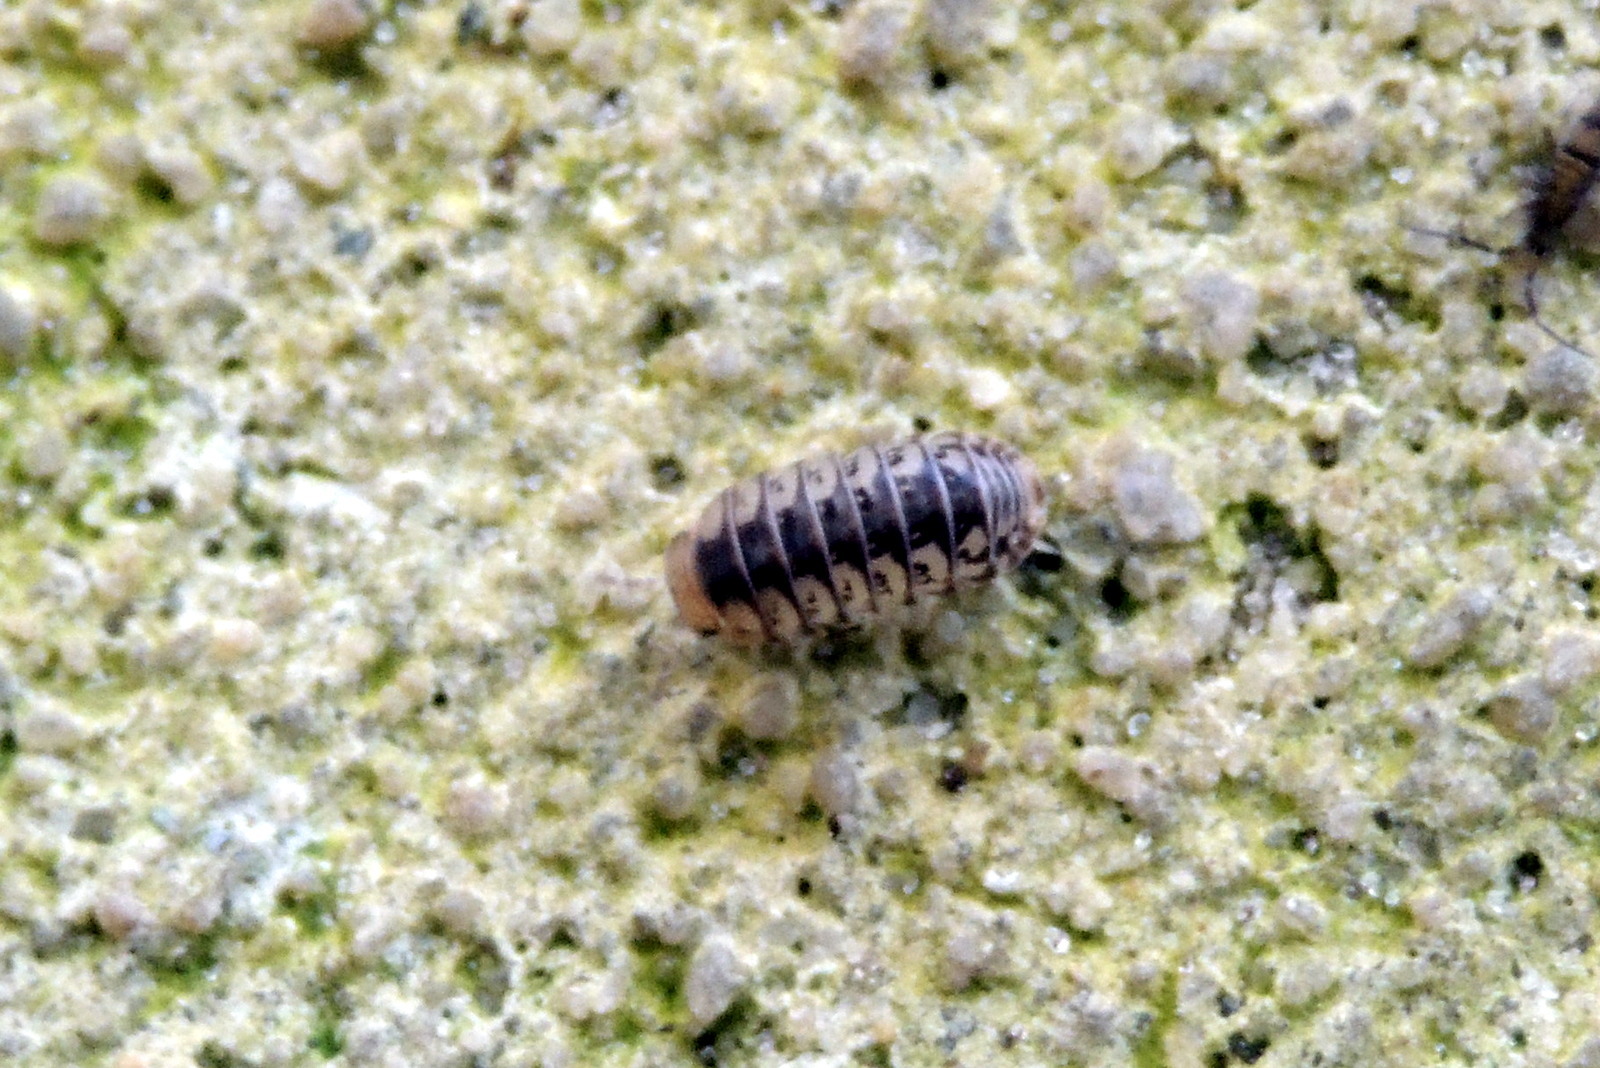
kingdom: Animalia
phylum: Arthropoda
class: Malacostraca
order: Isopoda
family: Armadillidae
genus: Venezillo
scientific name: Venezillo parvus
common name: Pillbug
